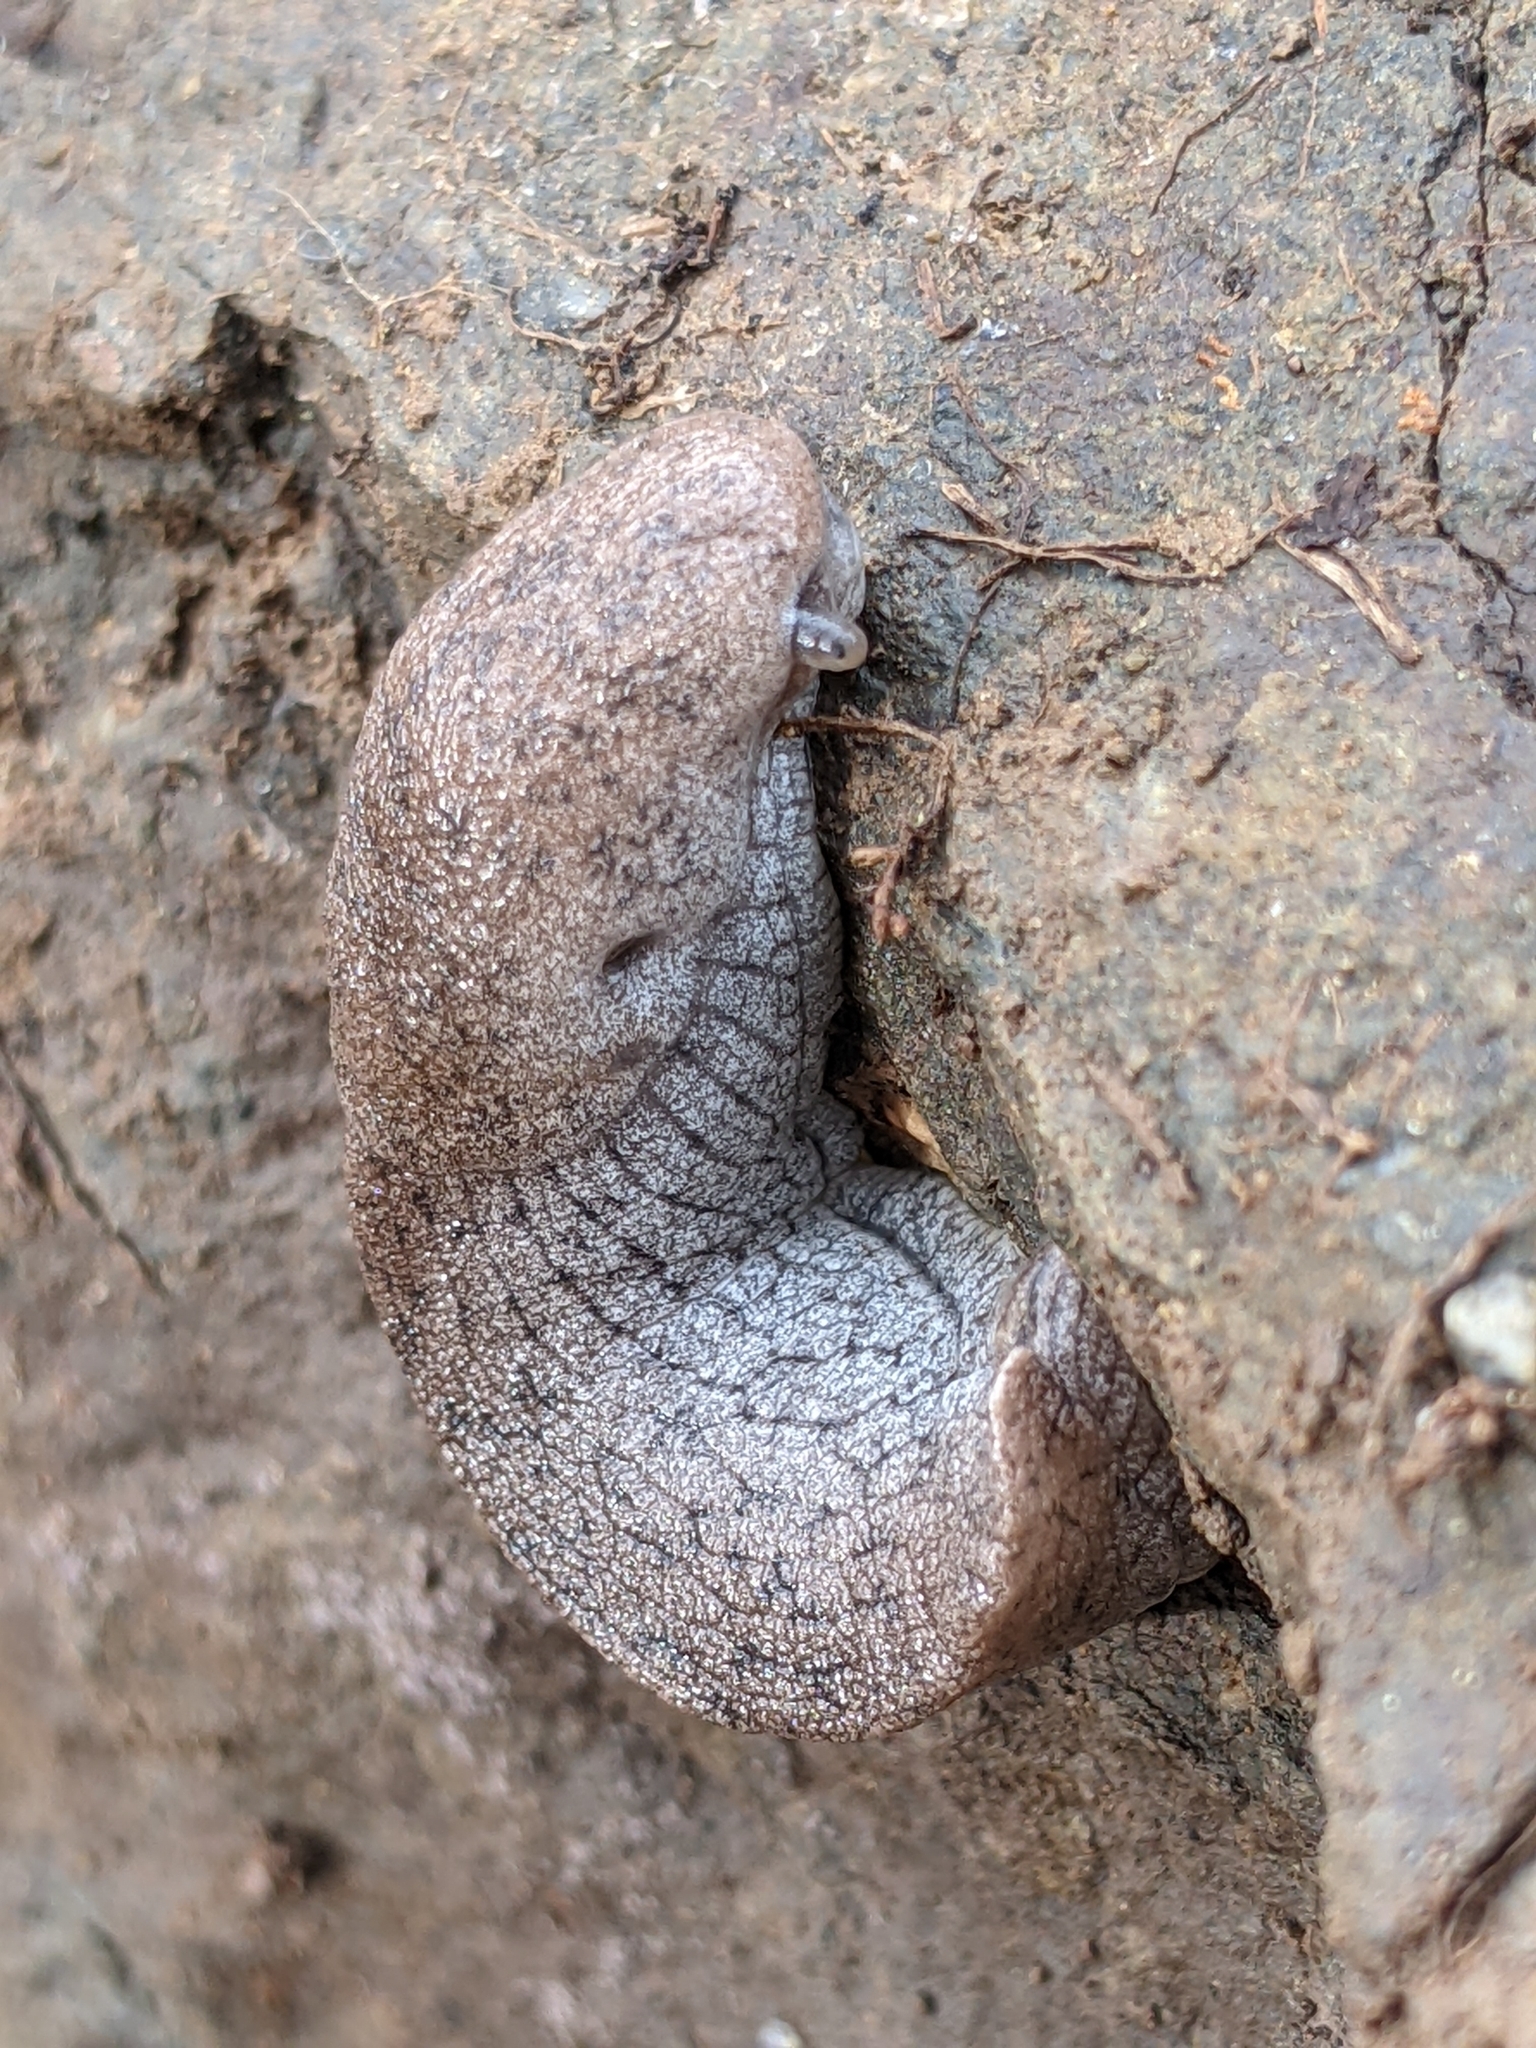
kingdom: Animalia
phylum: Mollusca
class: Gastropoda
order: Stylommatophora
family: Ariolimacidae
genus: Hesperarion
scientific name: Hesperarion niger
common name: Black western slug
